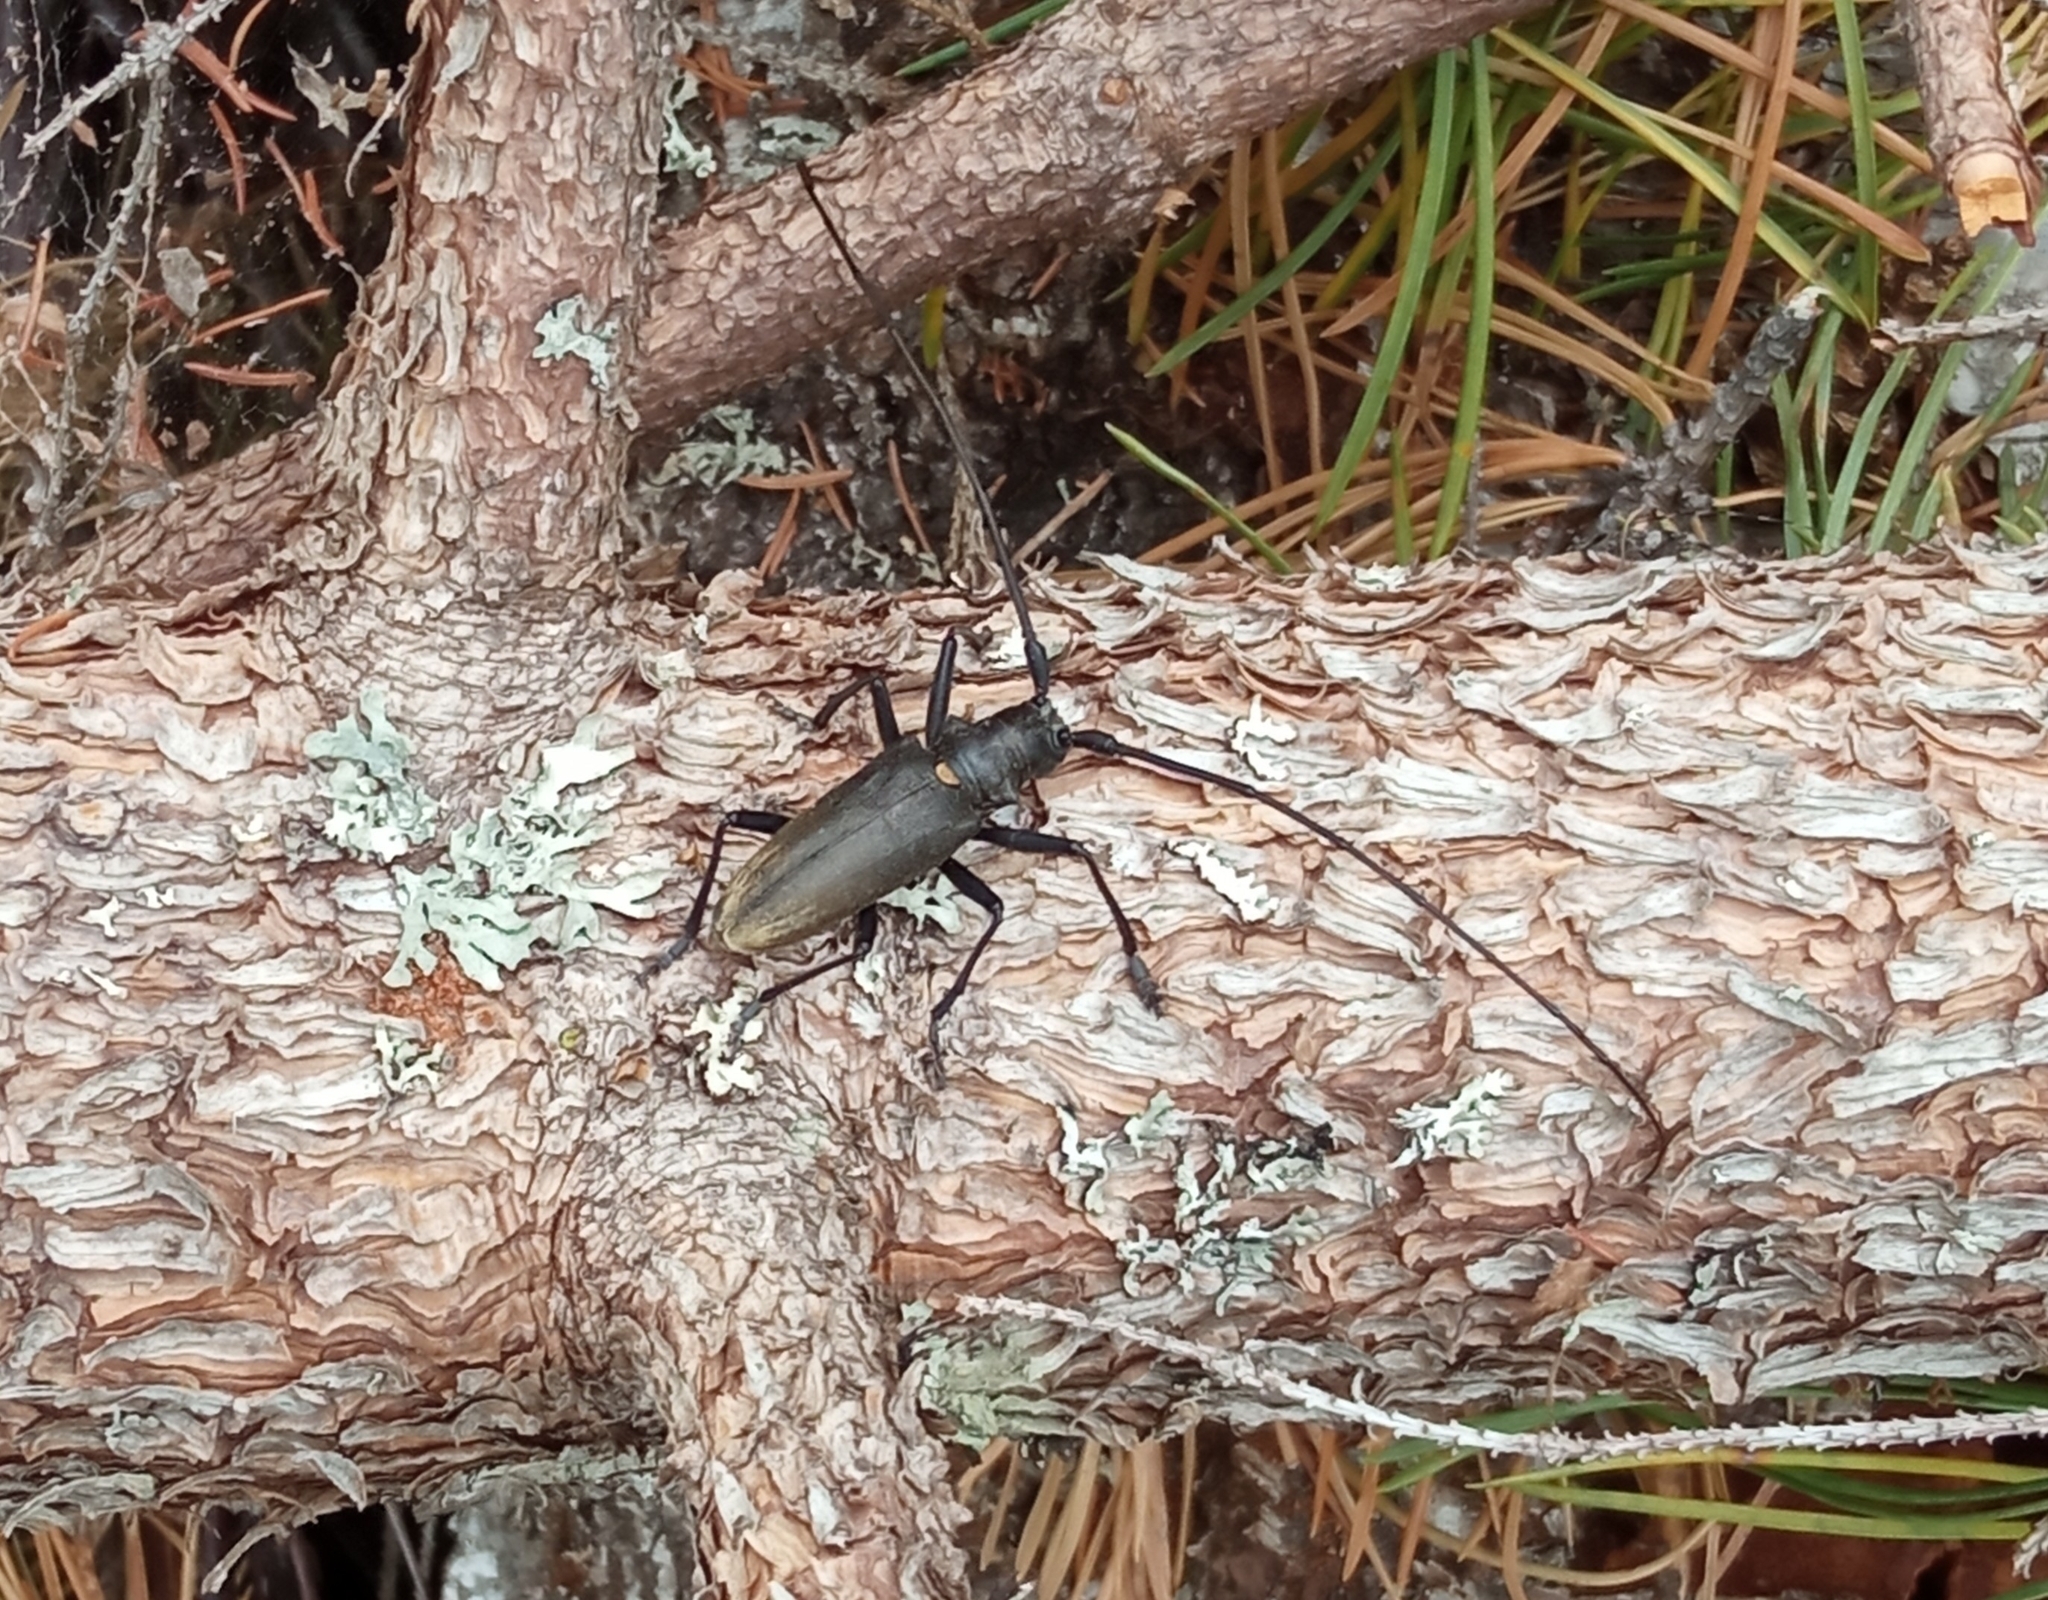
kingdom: Animalia
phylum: Arthropoda
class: Insecta
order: Coleoptera
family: Cerambycidae
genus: Monochamus
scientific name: Monochamus sartor
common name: Pine sawyer
